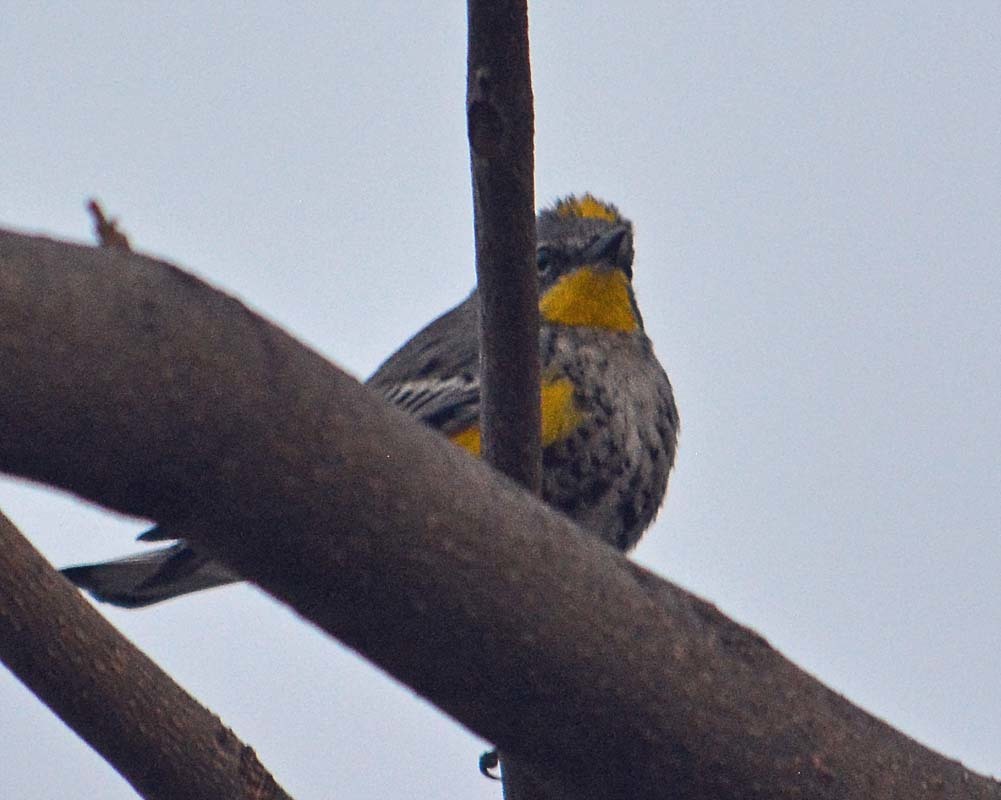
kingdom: Animalia
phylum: Chordata
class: Aves
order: Passeriformes
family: Parulidae
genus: Setophaga
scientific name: Setophaga auduboni
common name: Audubon's warbler
